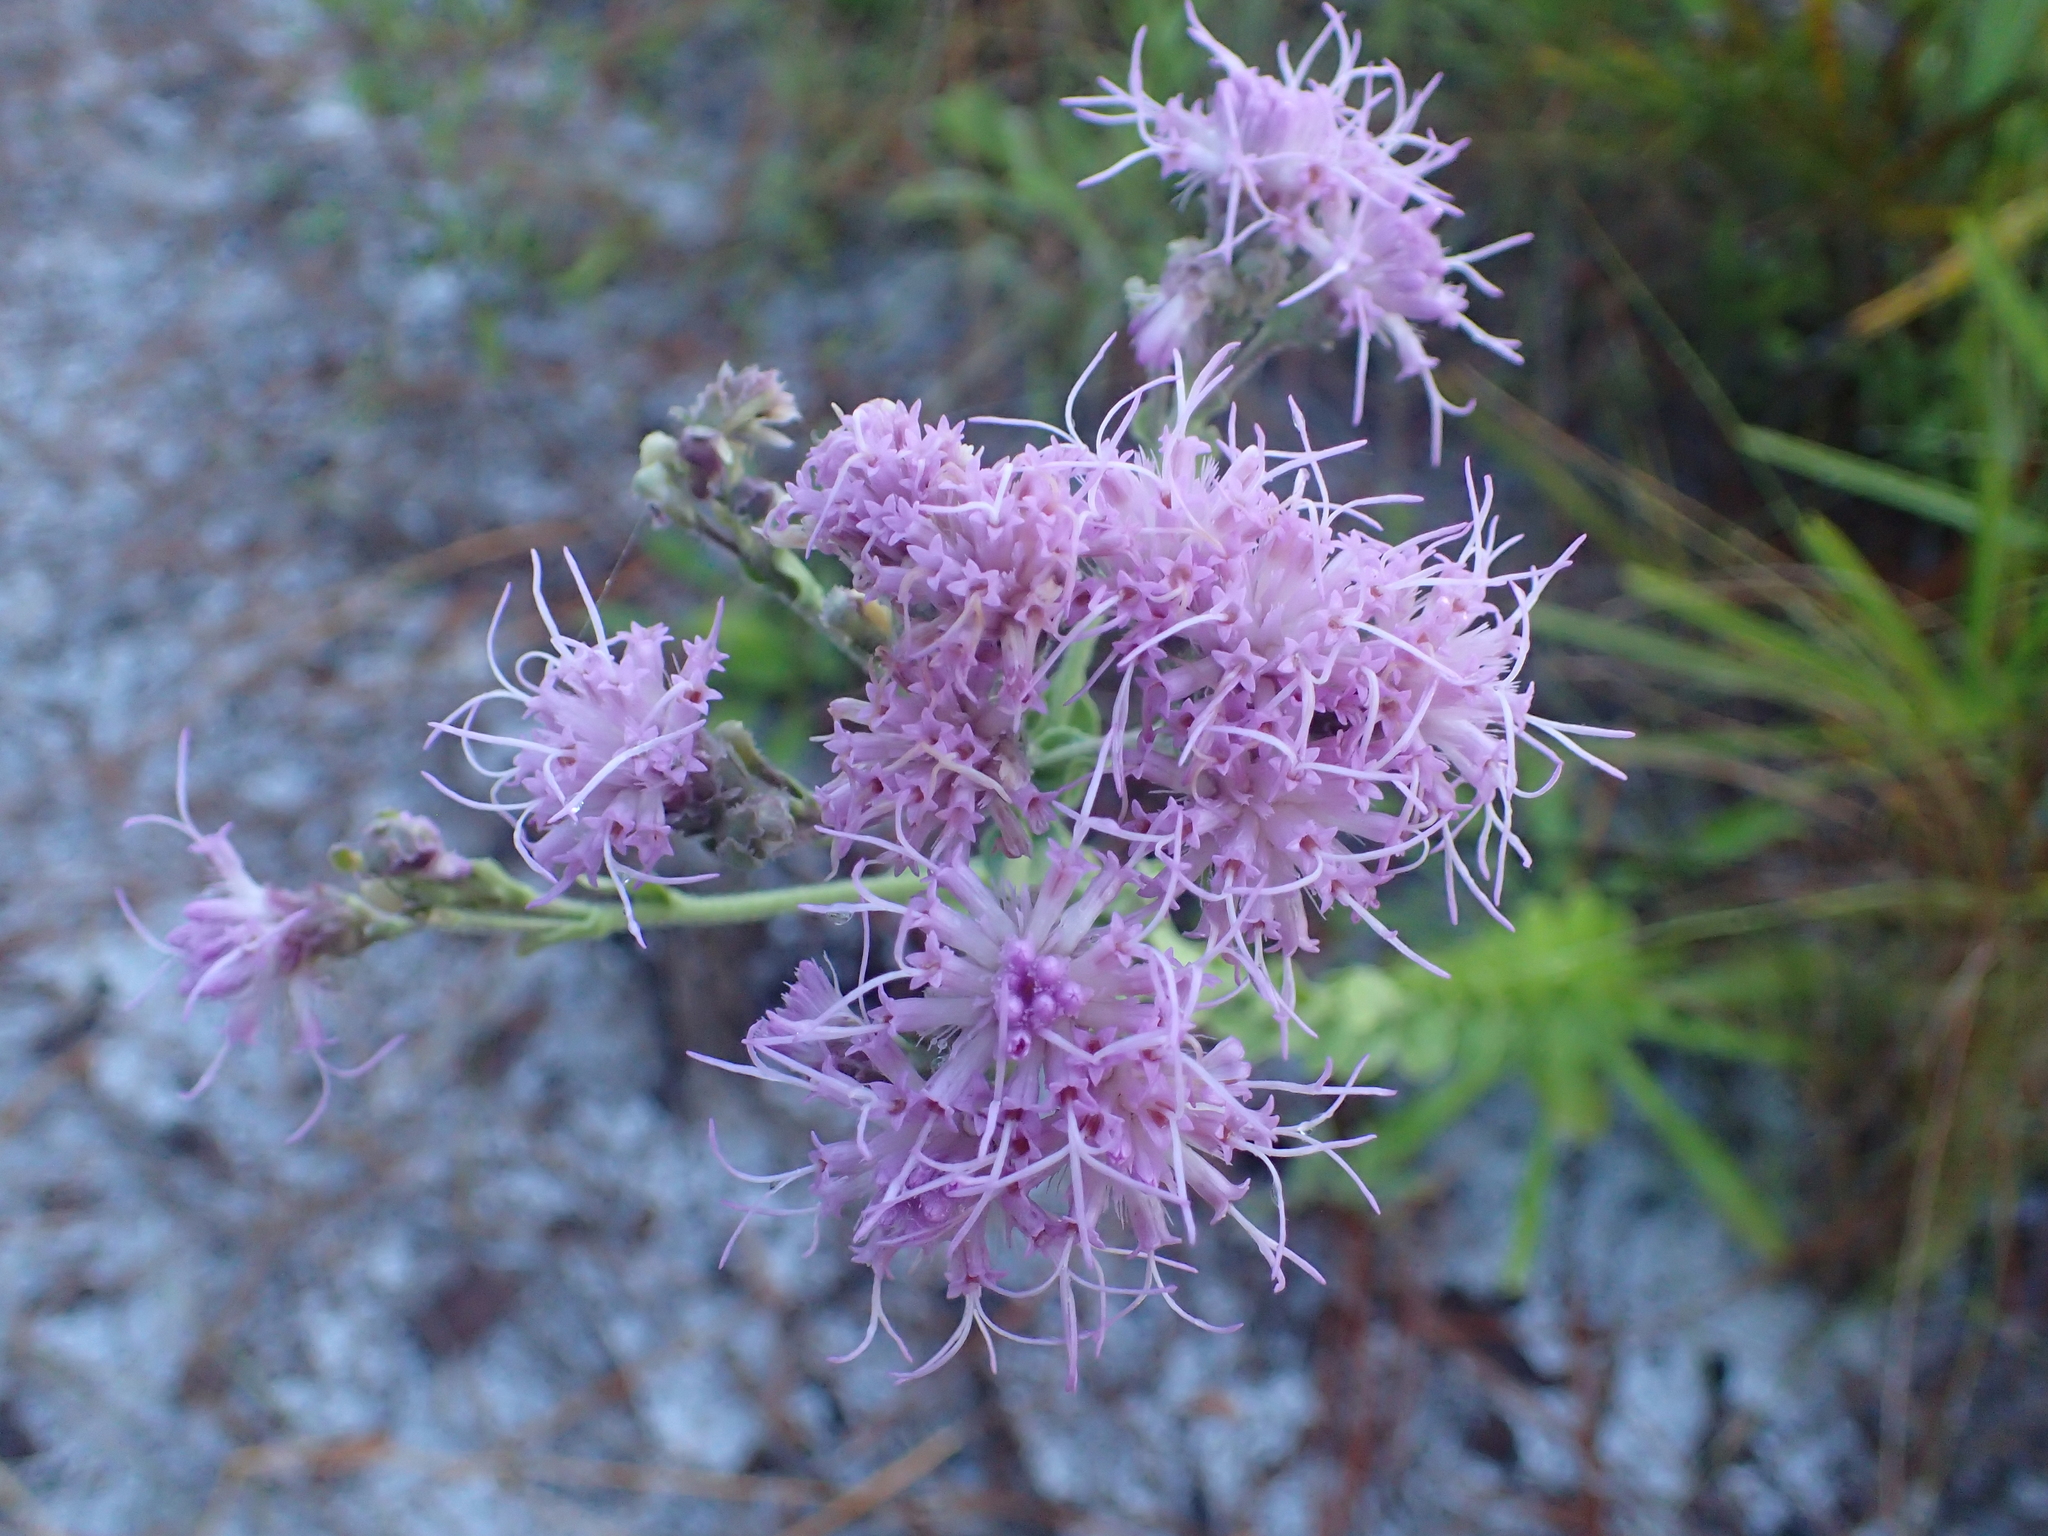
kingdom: Plantae
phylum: Tracheophyta
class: Magnoliopsida
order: Asterales
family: Asteraceae
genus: Carphephorus
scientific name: Carphephorus corymbosus
